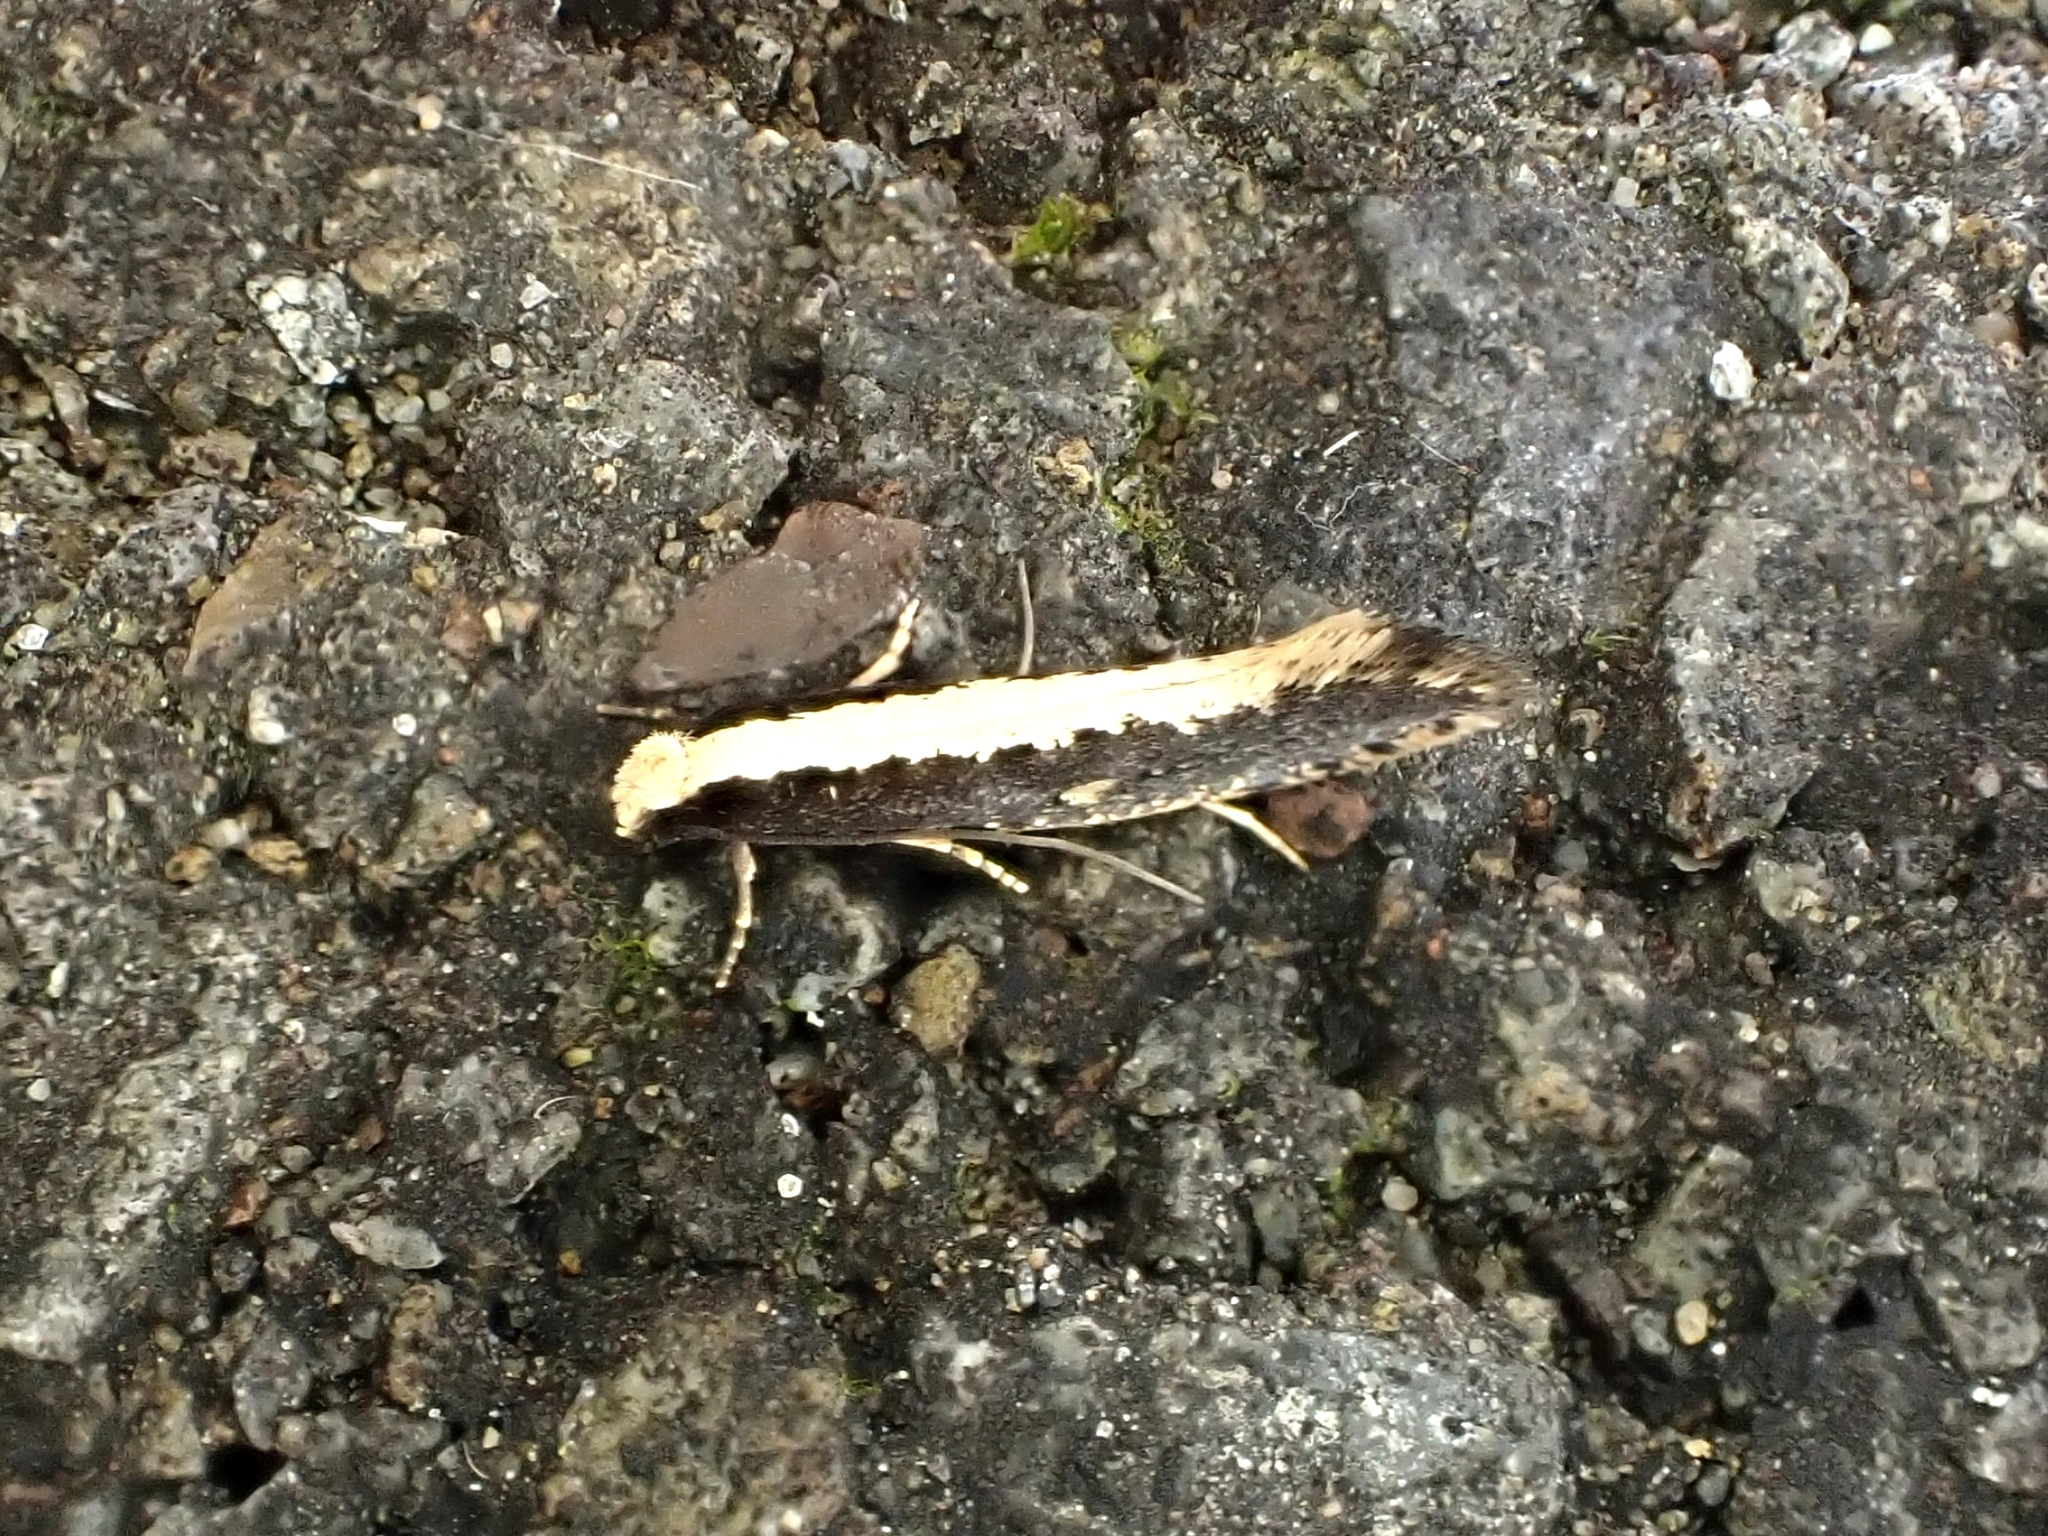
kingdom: Animalia
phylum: Arthropoda
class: Insecta
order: Lepidoptera
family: Tineidae
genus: Monopis
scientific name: Monopis ethelella
